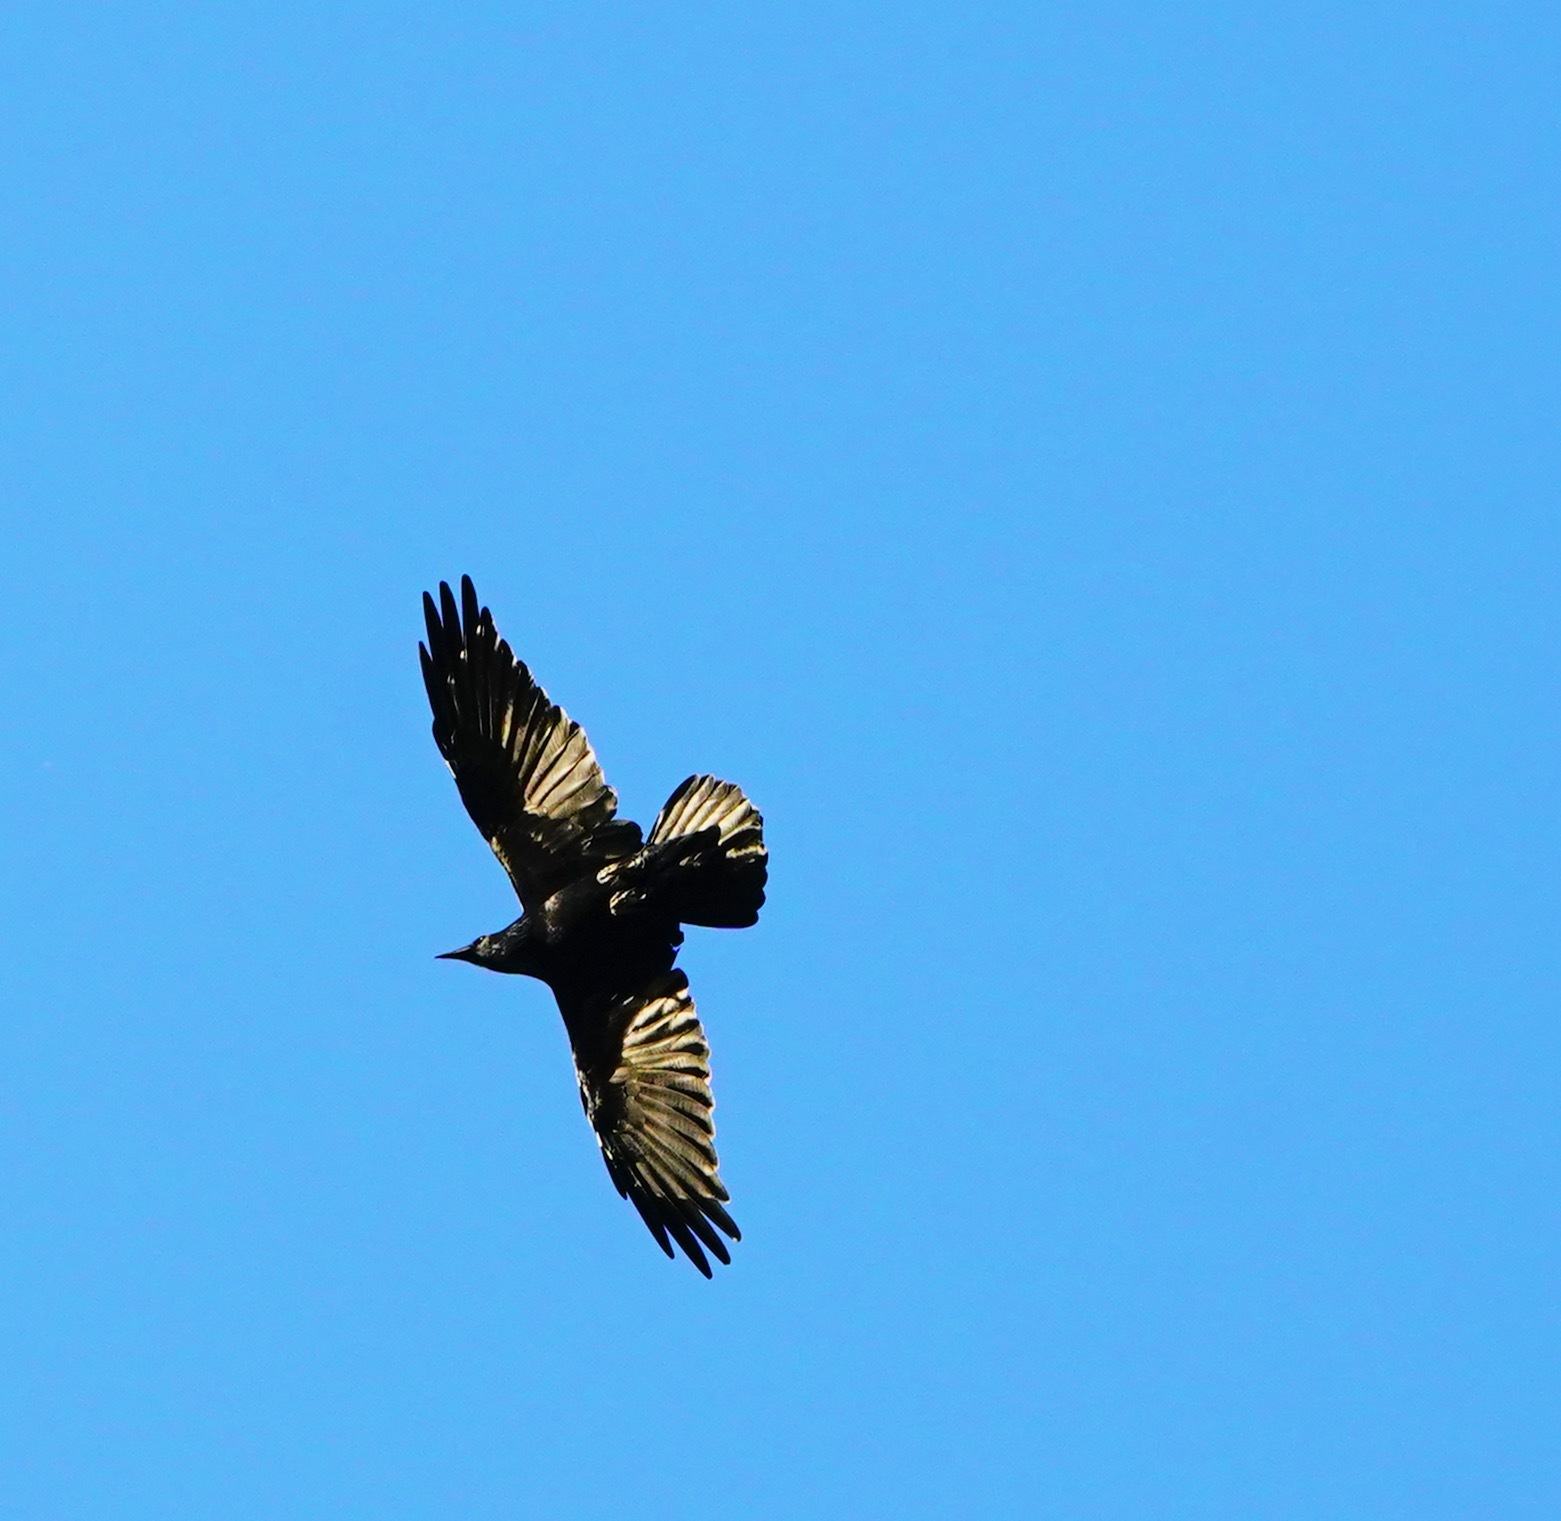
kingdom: Animalia
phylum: Chordata
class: Aves
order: Passeriformes
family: Corvidae
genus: Corvus
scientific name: Corvus corax
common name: Common raven
